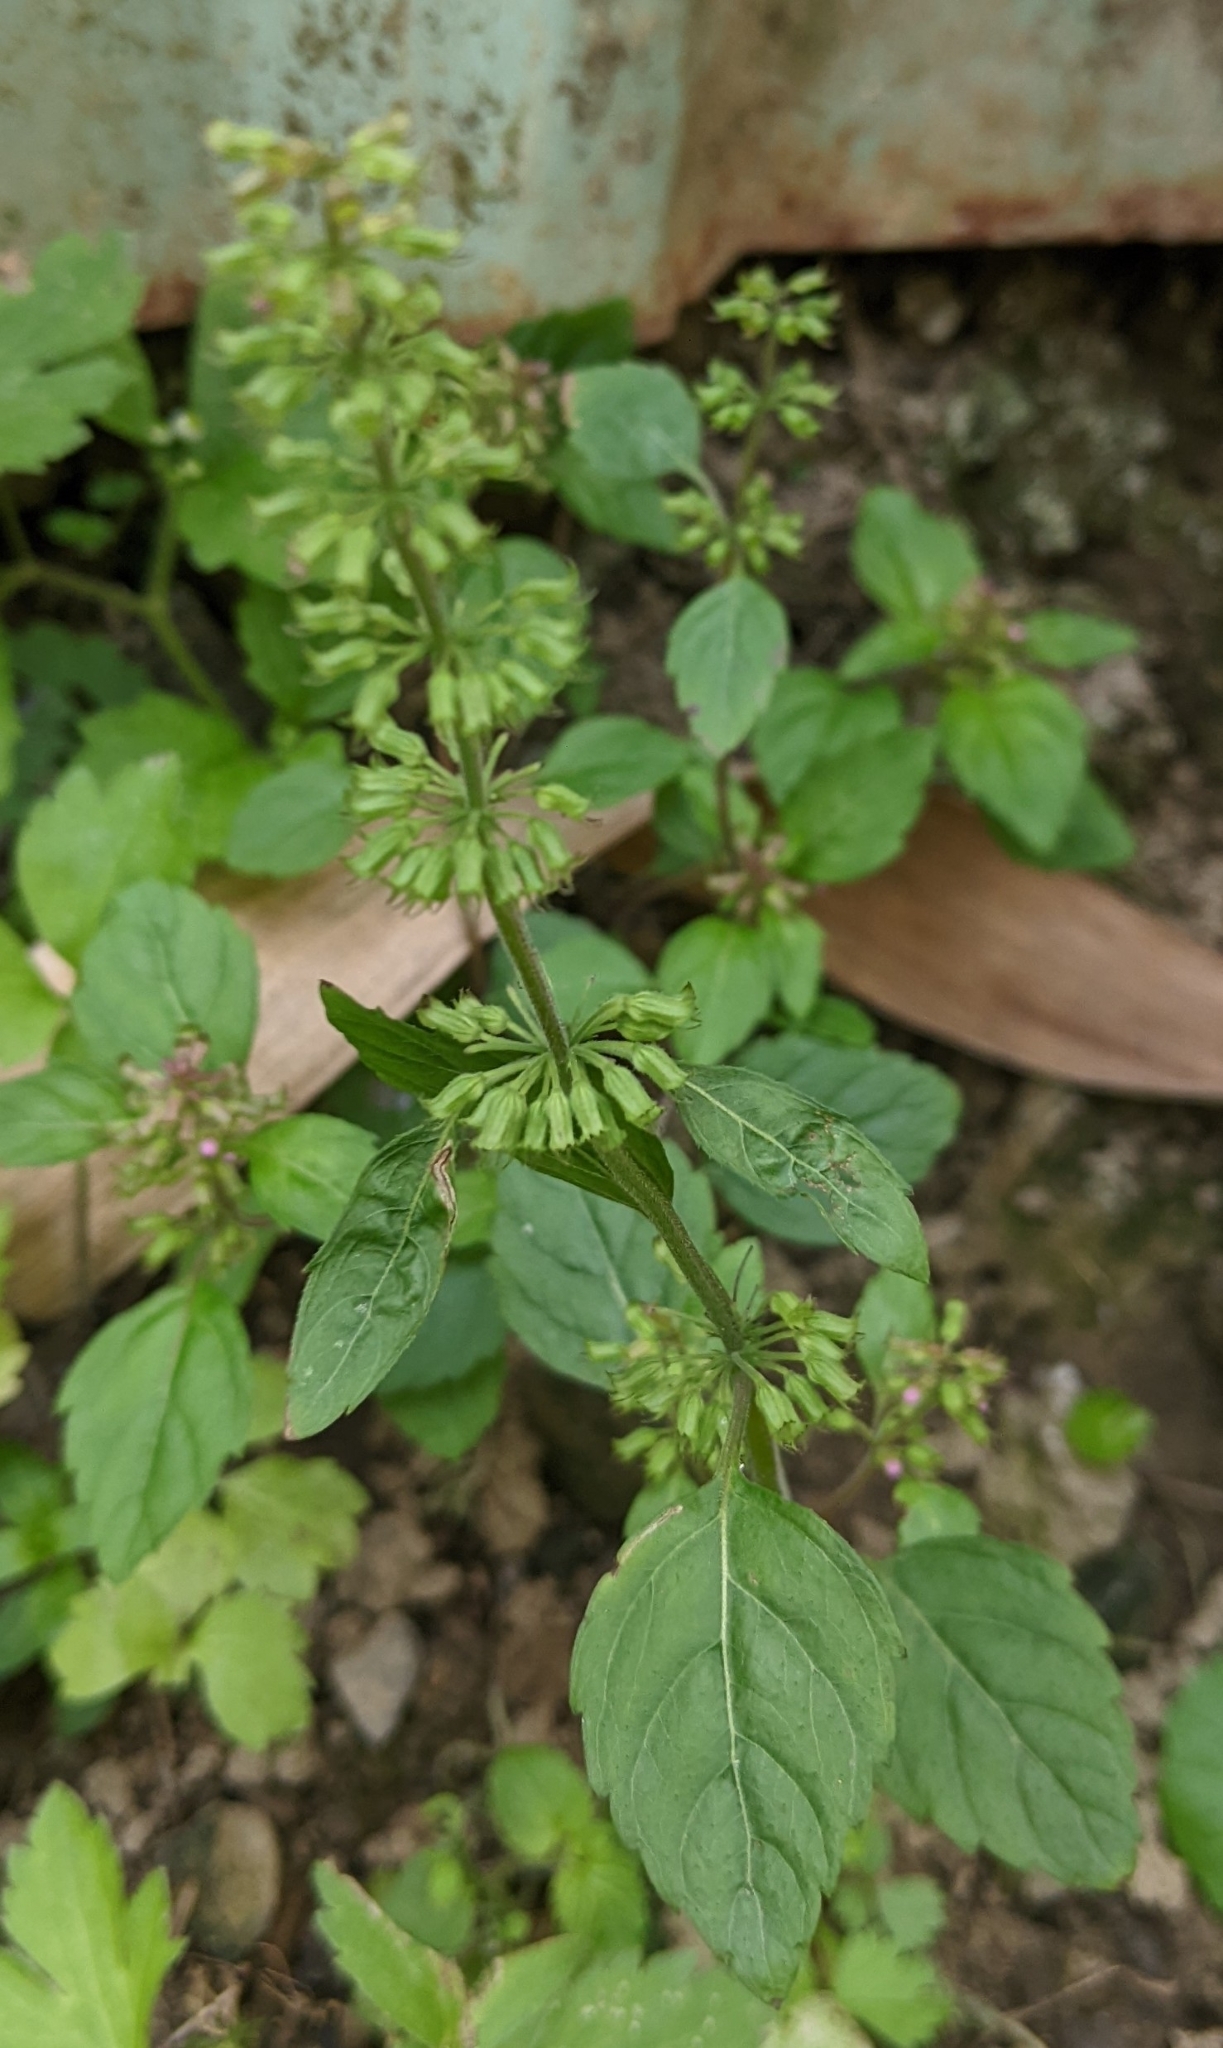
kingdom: Plantae
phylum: Tracheophyta
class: Magnoliopsida
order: Lamiales
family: Lamiaceae
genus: Clinopodium
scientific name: Clinopodium gracile
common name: Slender wild basil
